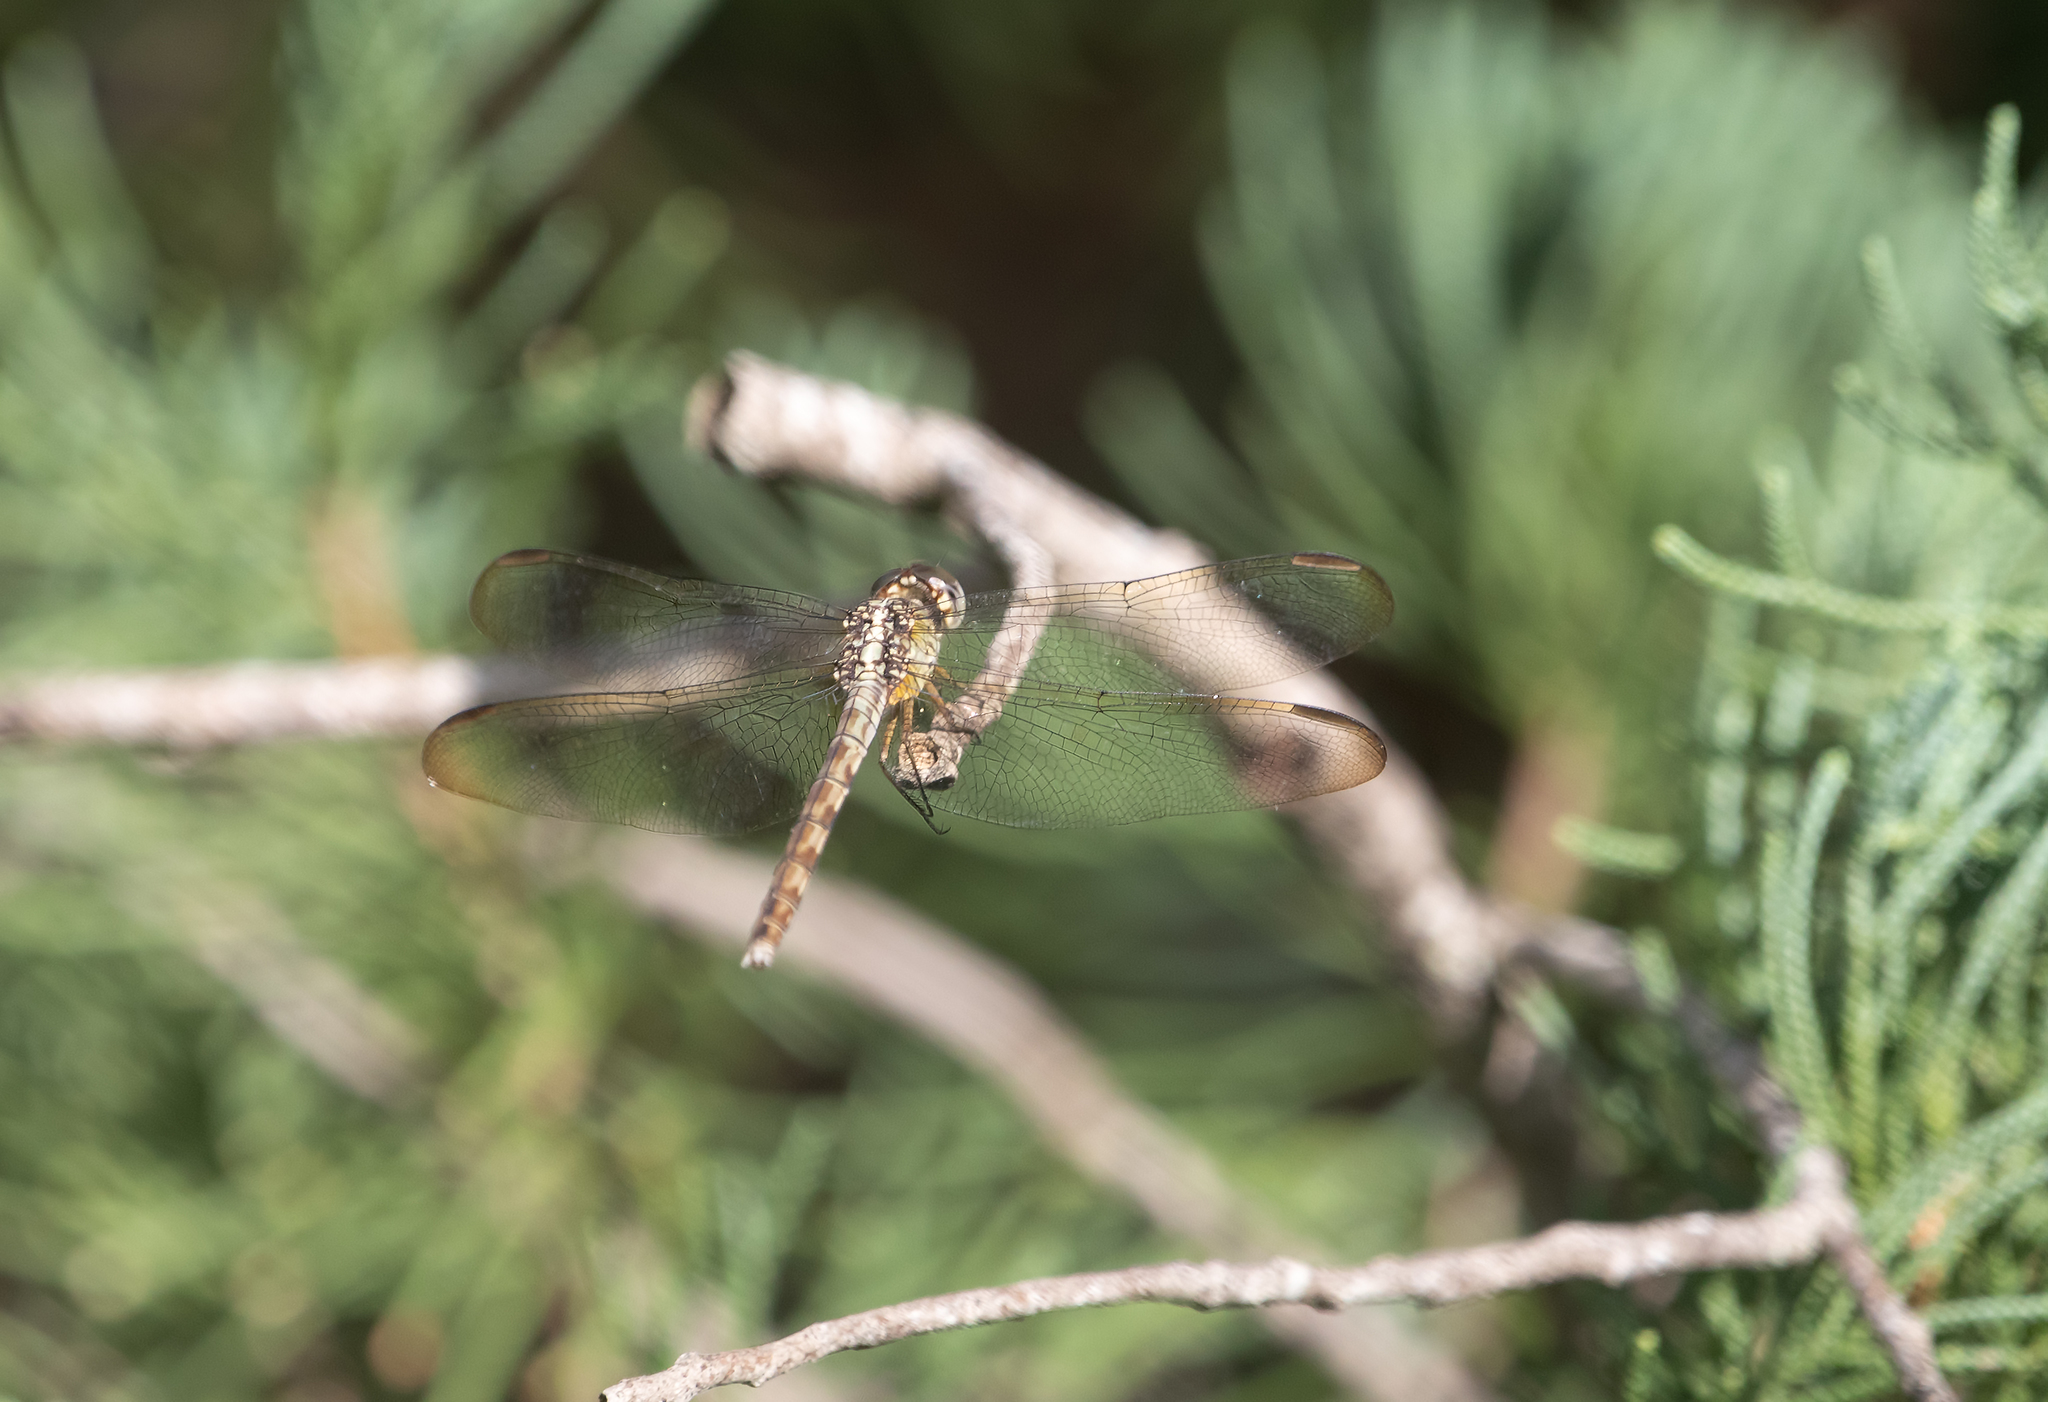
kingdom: Animalia
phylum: Arthropoda
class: Insecta
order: Odonata
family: Libellulidae
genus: Erythrodiplax
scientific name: Erythrodiplax umbrata
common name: Band-winged dragonlet
